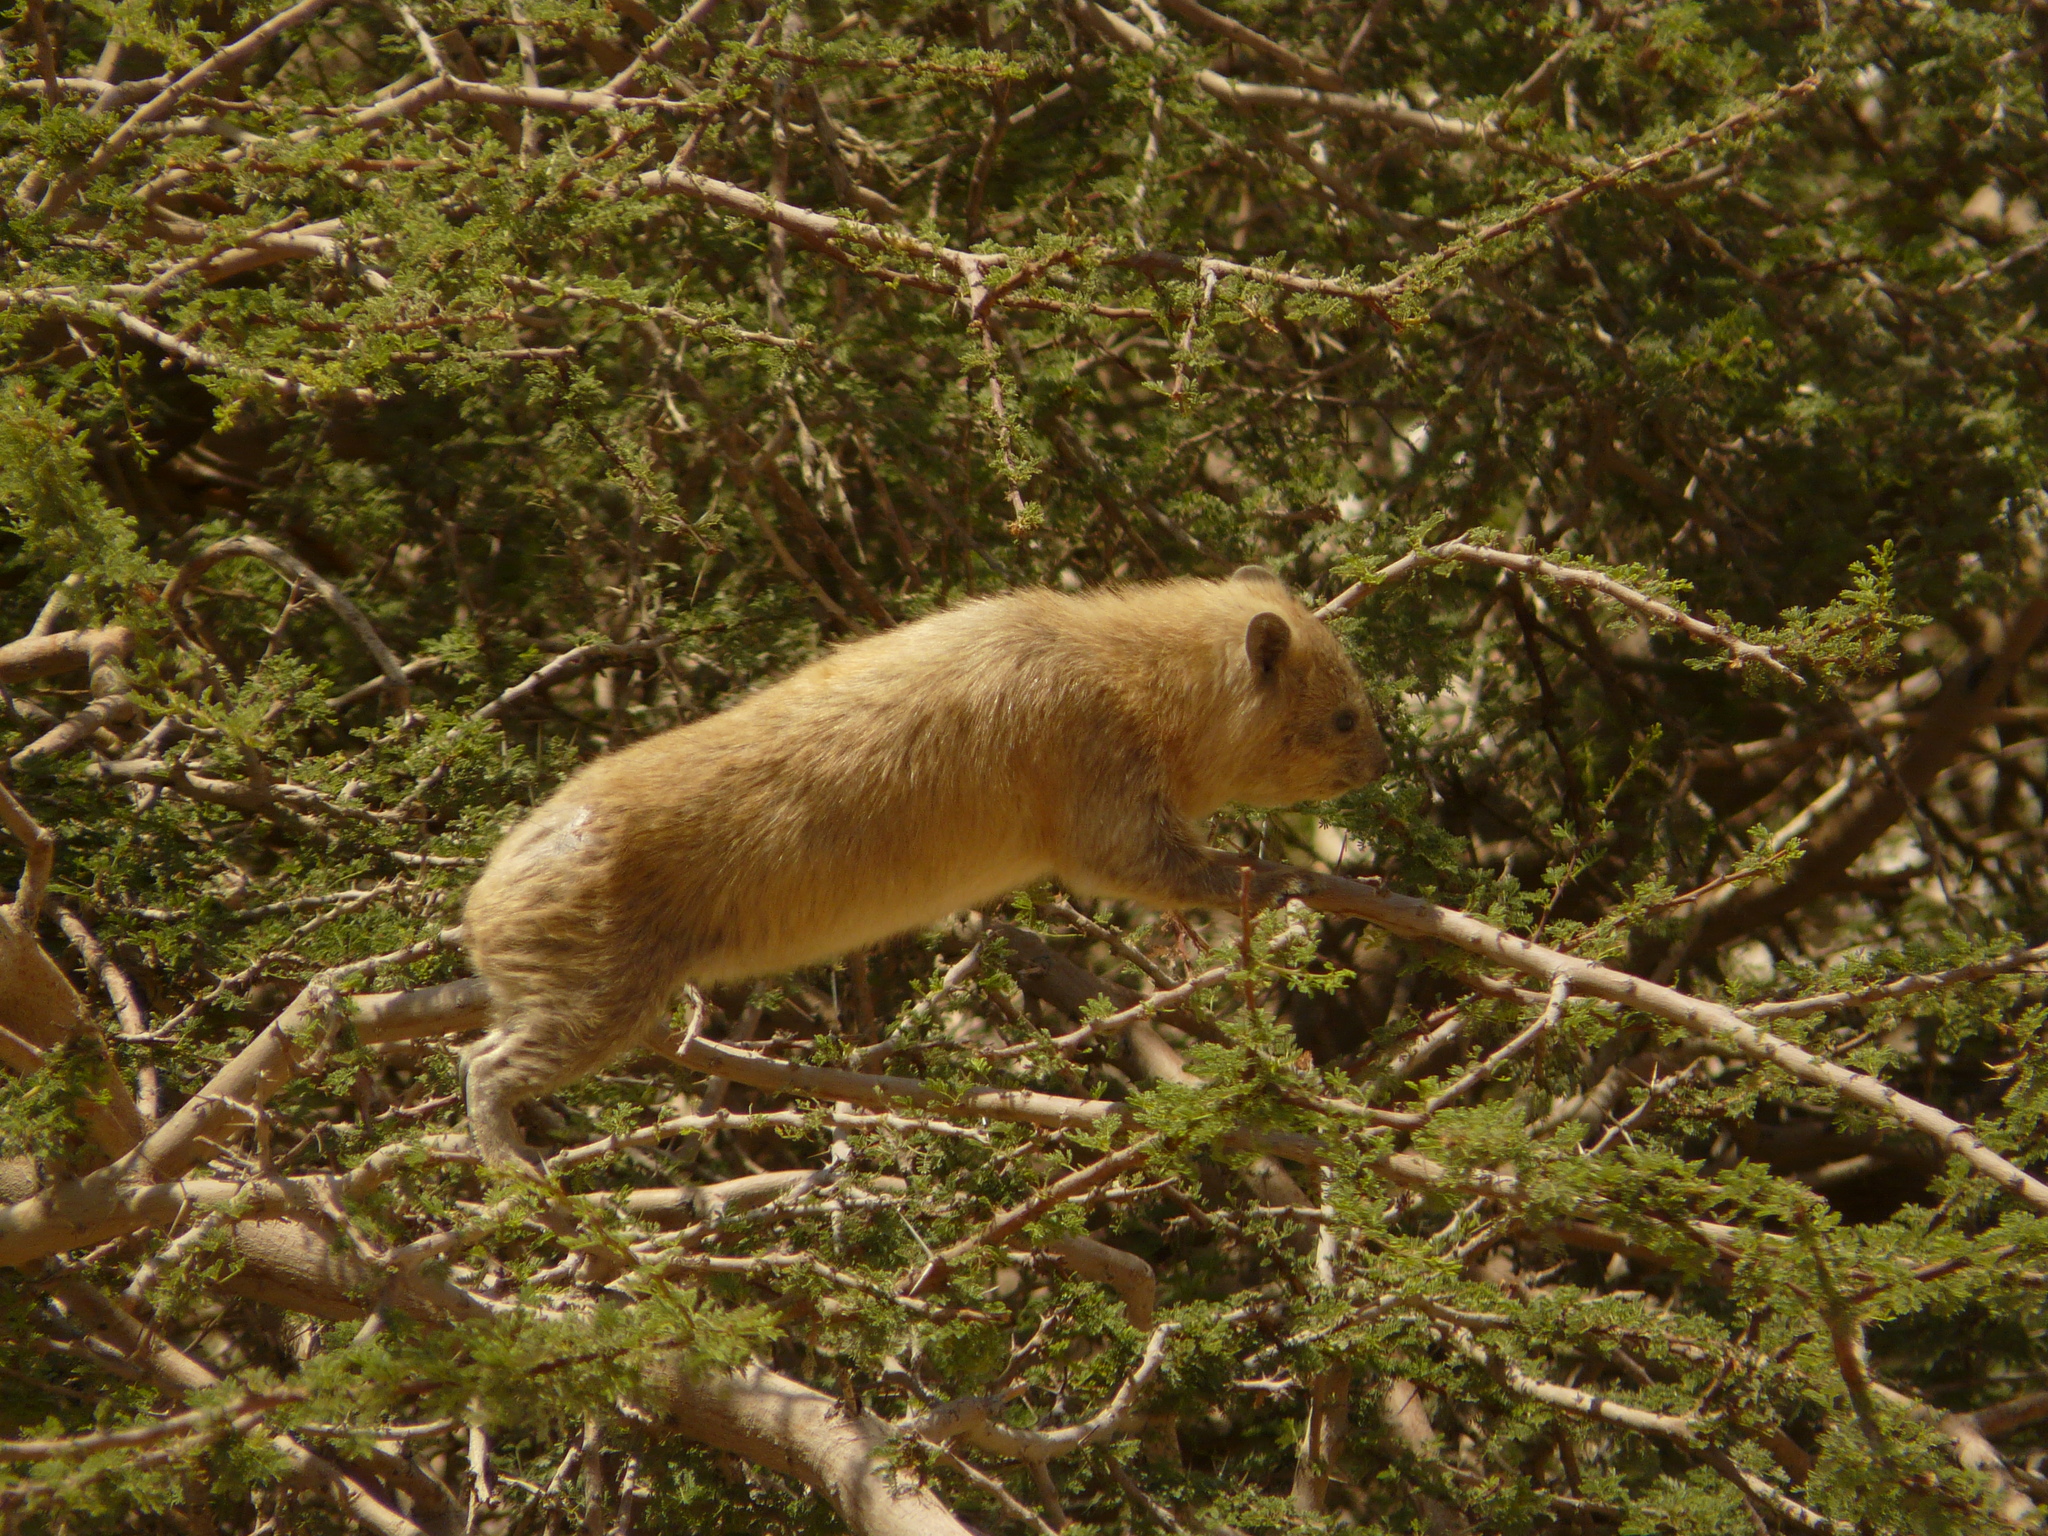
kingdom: Animalia
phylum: Chordata
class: Mammalia
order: Hyracoidea
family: Procaviidae
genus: Procavia
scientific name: Procavia capensis
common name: Rock hyrax
